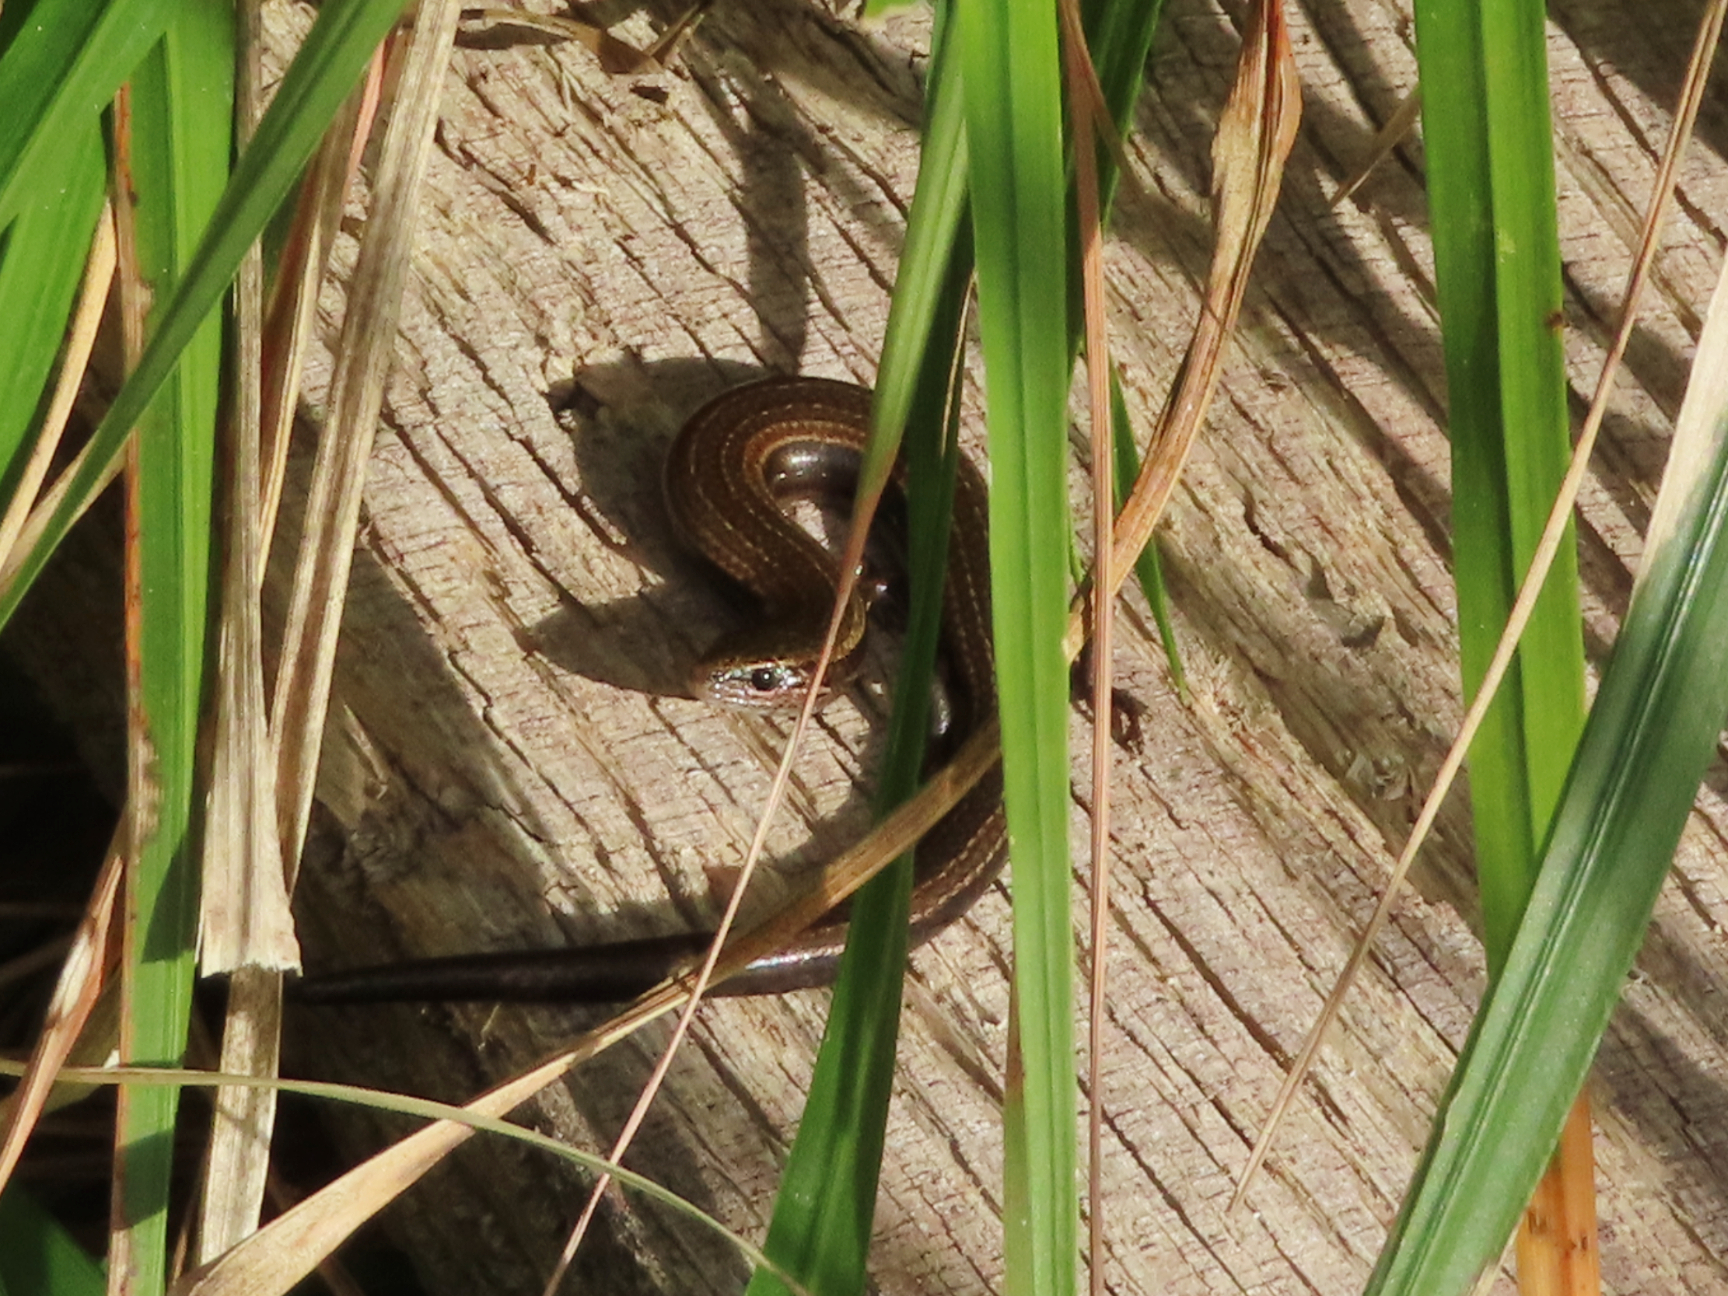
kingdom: Animalia
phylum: Chordata
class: Squamata
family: Scincidae
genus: Ablepharus
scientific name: Ablepharus kitaibelii
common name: Juniper skink
